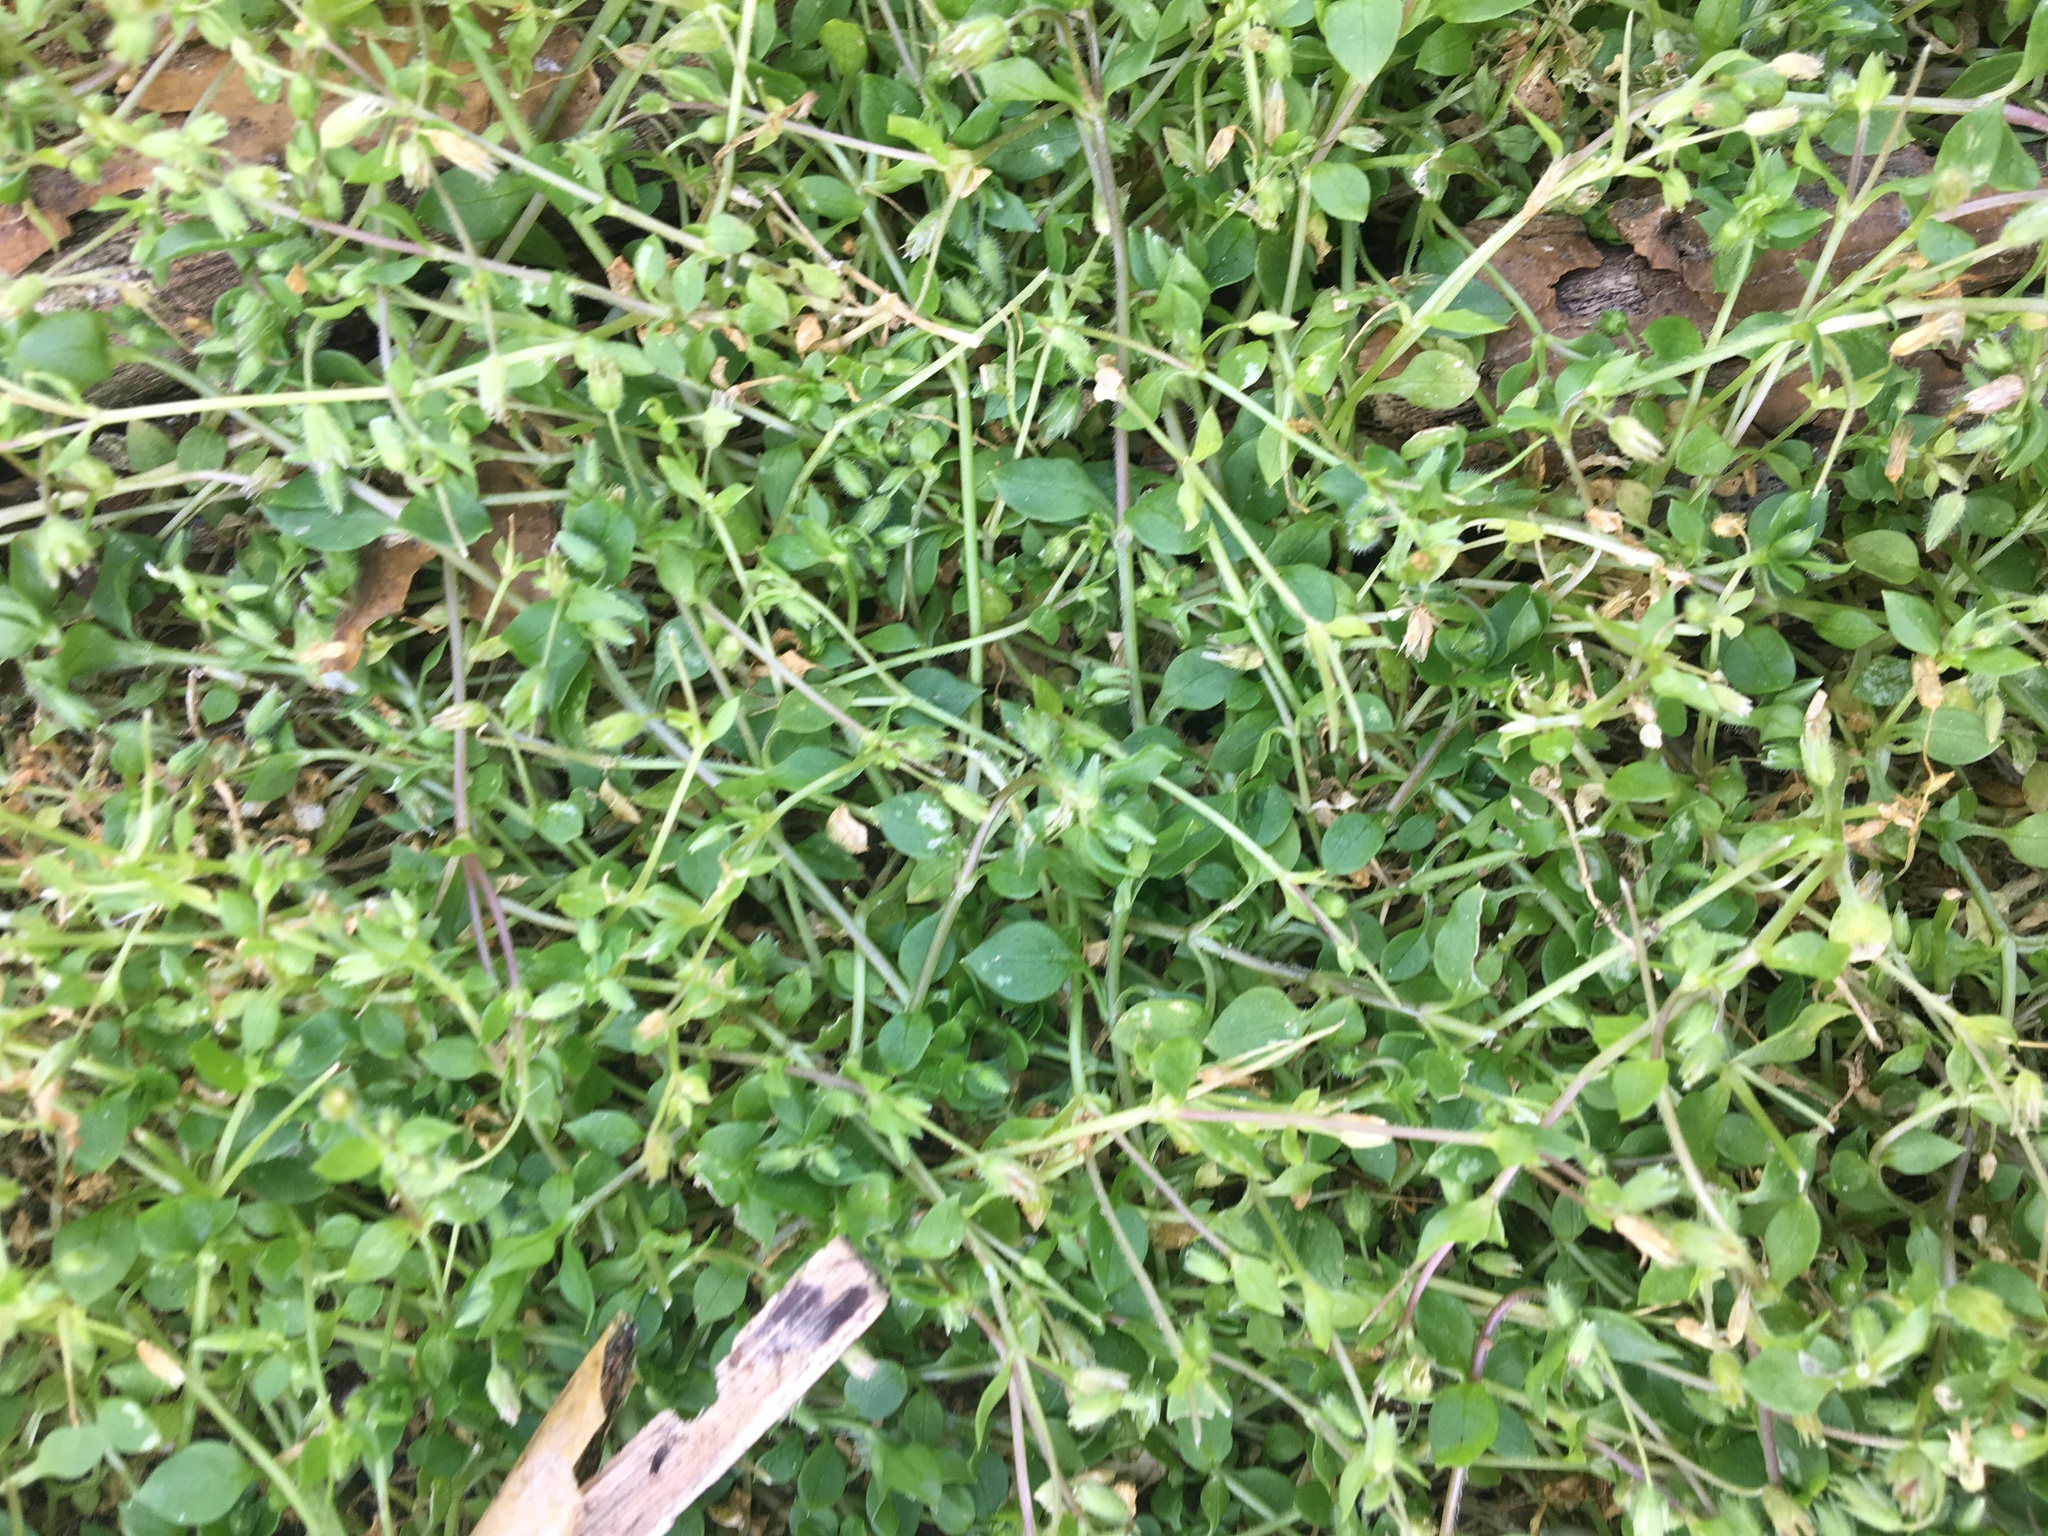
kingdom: Plantae
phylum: Tracheophyta
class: Magnoliopsida
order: Caryophyllales
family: Caryophyllaceae
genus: Stellaria
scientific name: Stellaria media
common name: Common chickweed
